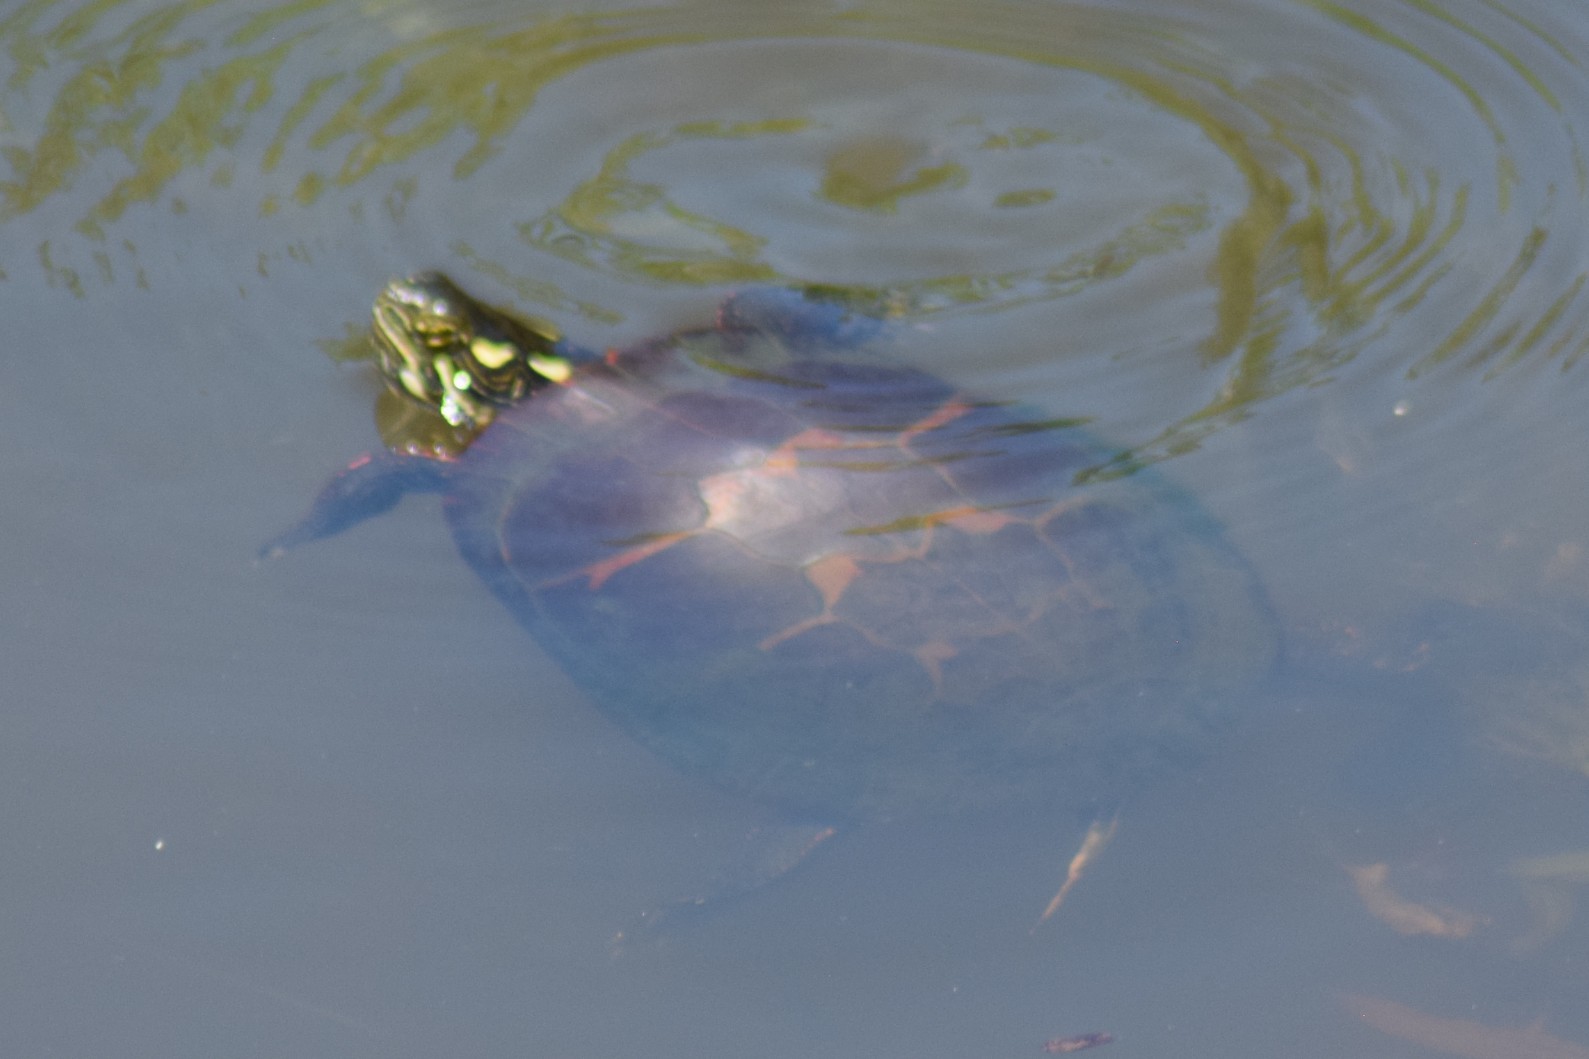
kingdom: Animalia
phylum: Chordata
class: Testudines
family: Emydidae
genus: Chrysemys
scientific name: Chrysemys picta
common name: Painted turtle
